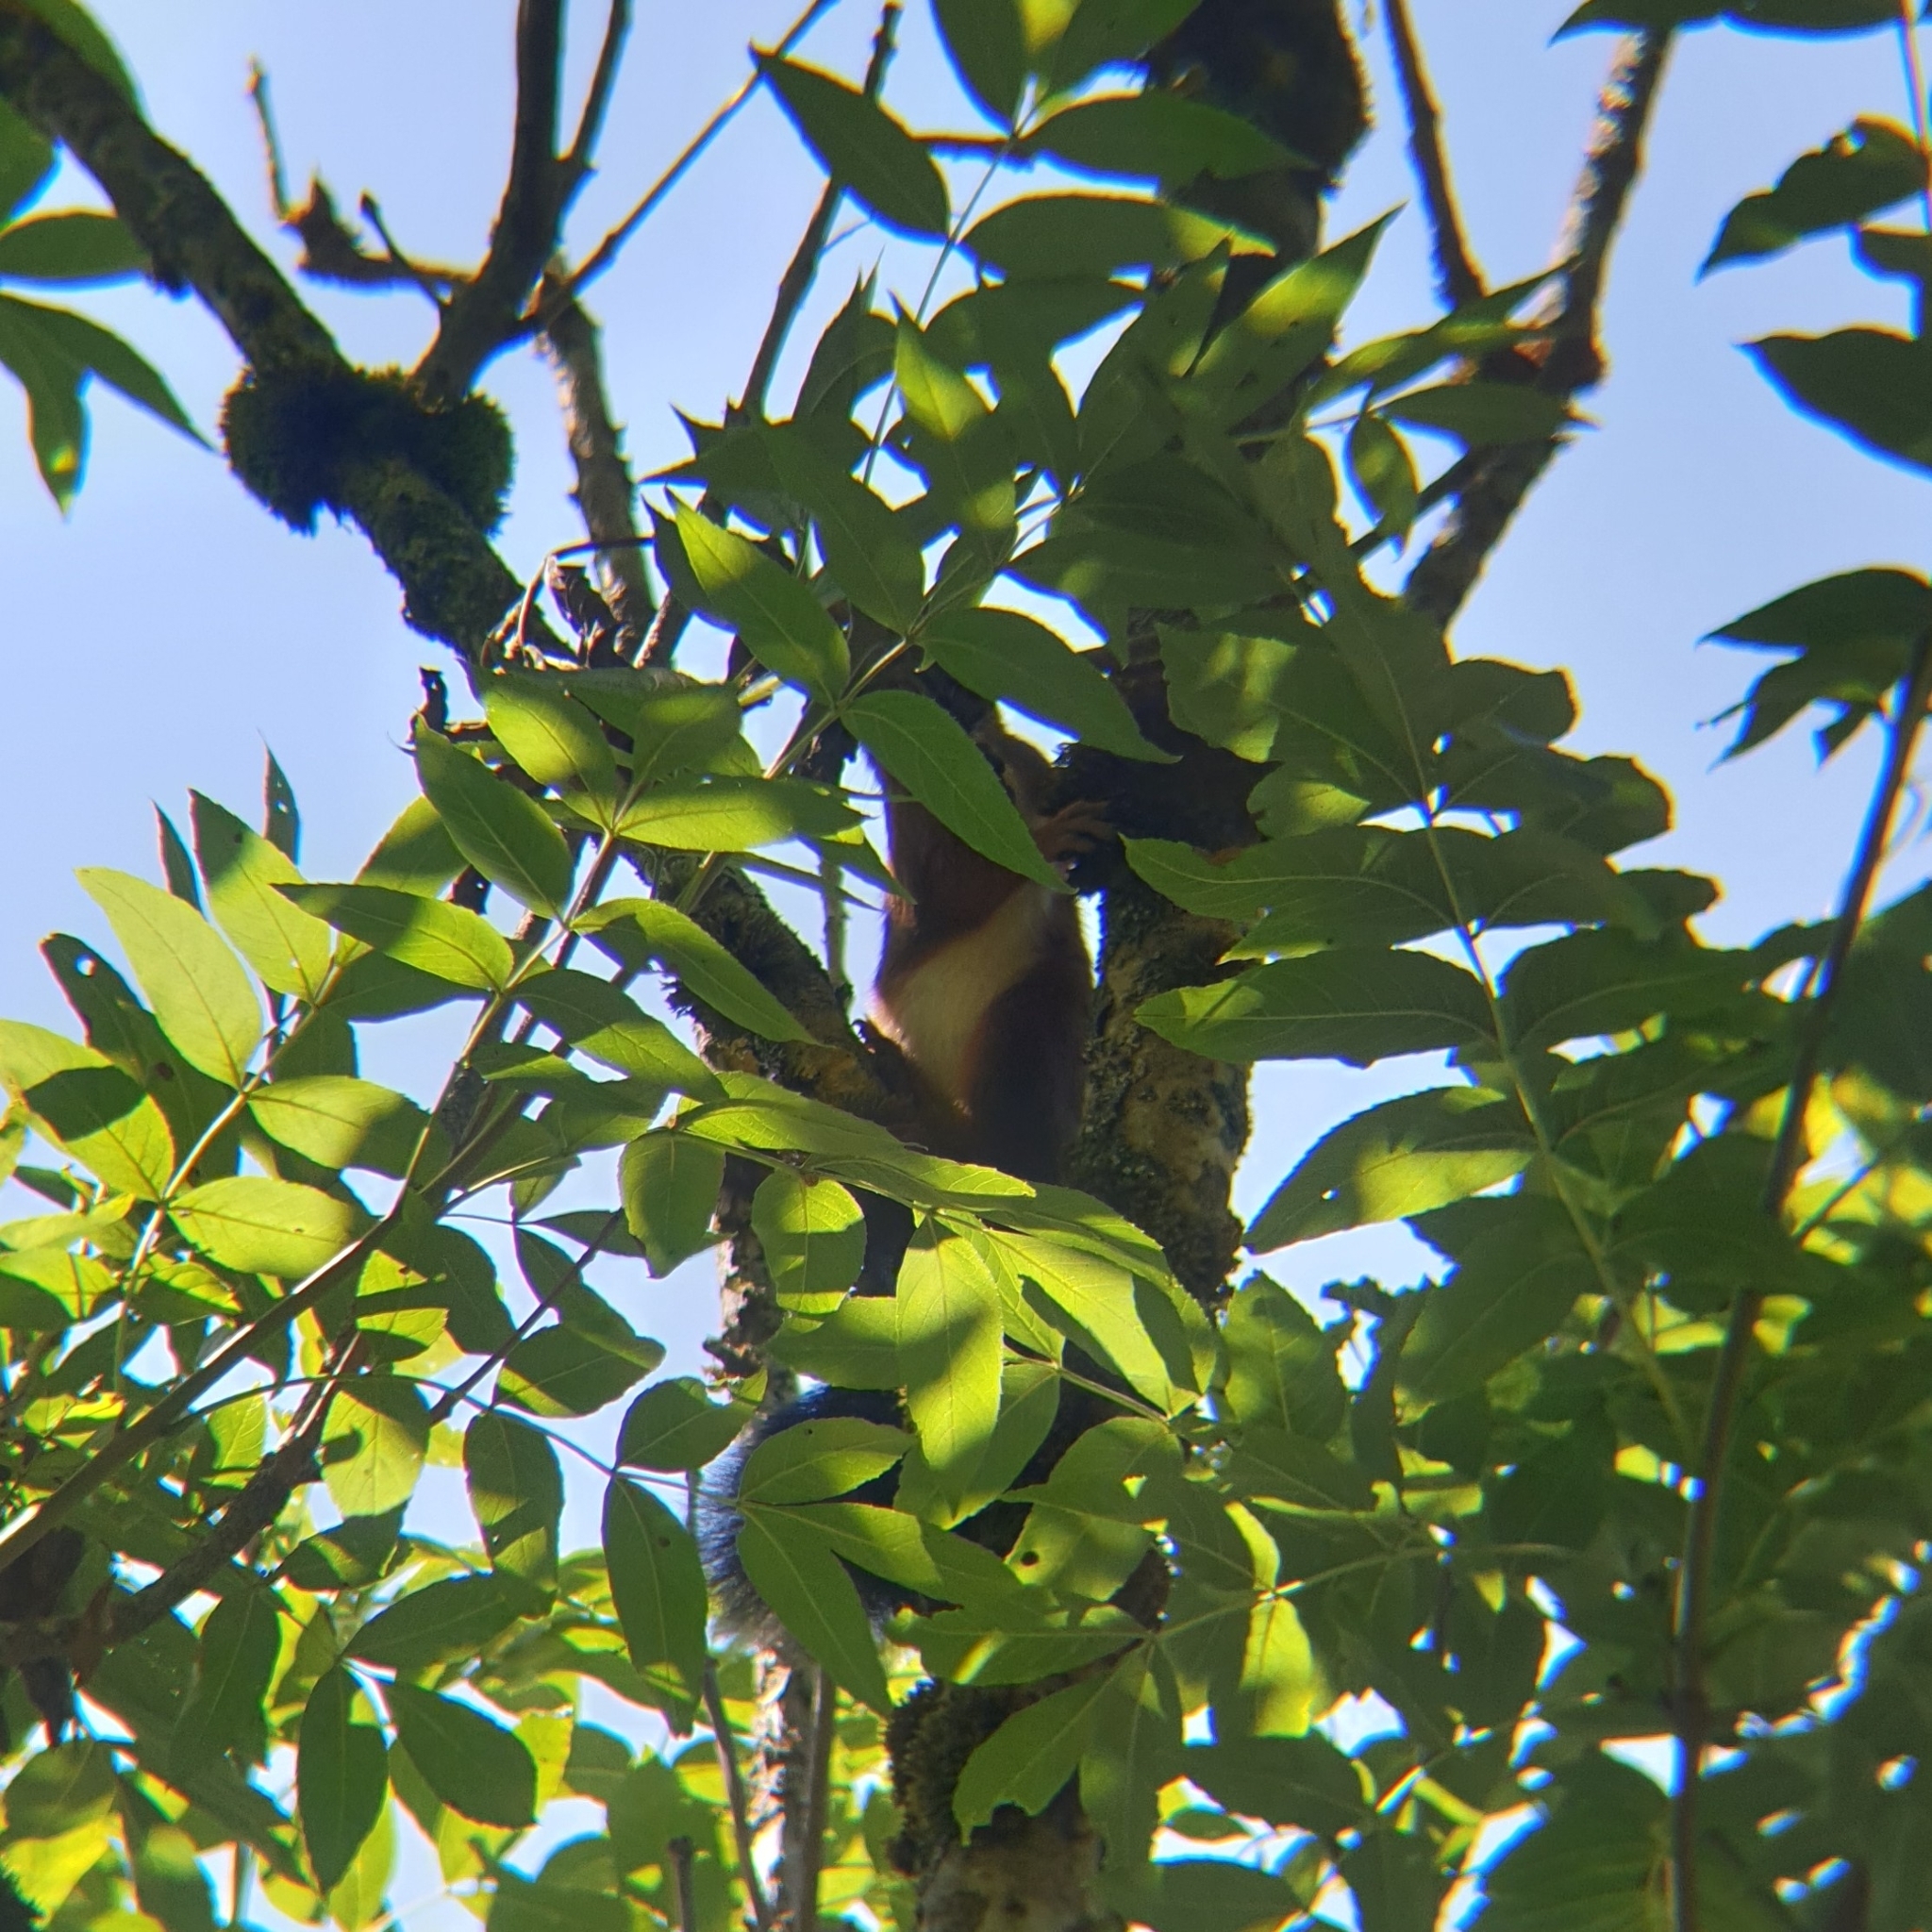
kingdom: Animalia
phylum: Chordata
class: Mammalia
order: Rodentia
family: Sciuridae
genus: Sciurus
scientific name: Sciurus vulgaris
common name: Eurasian red squirrel
